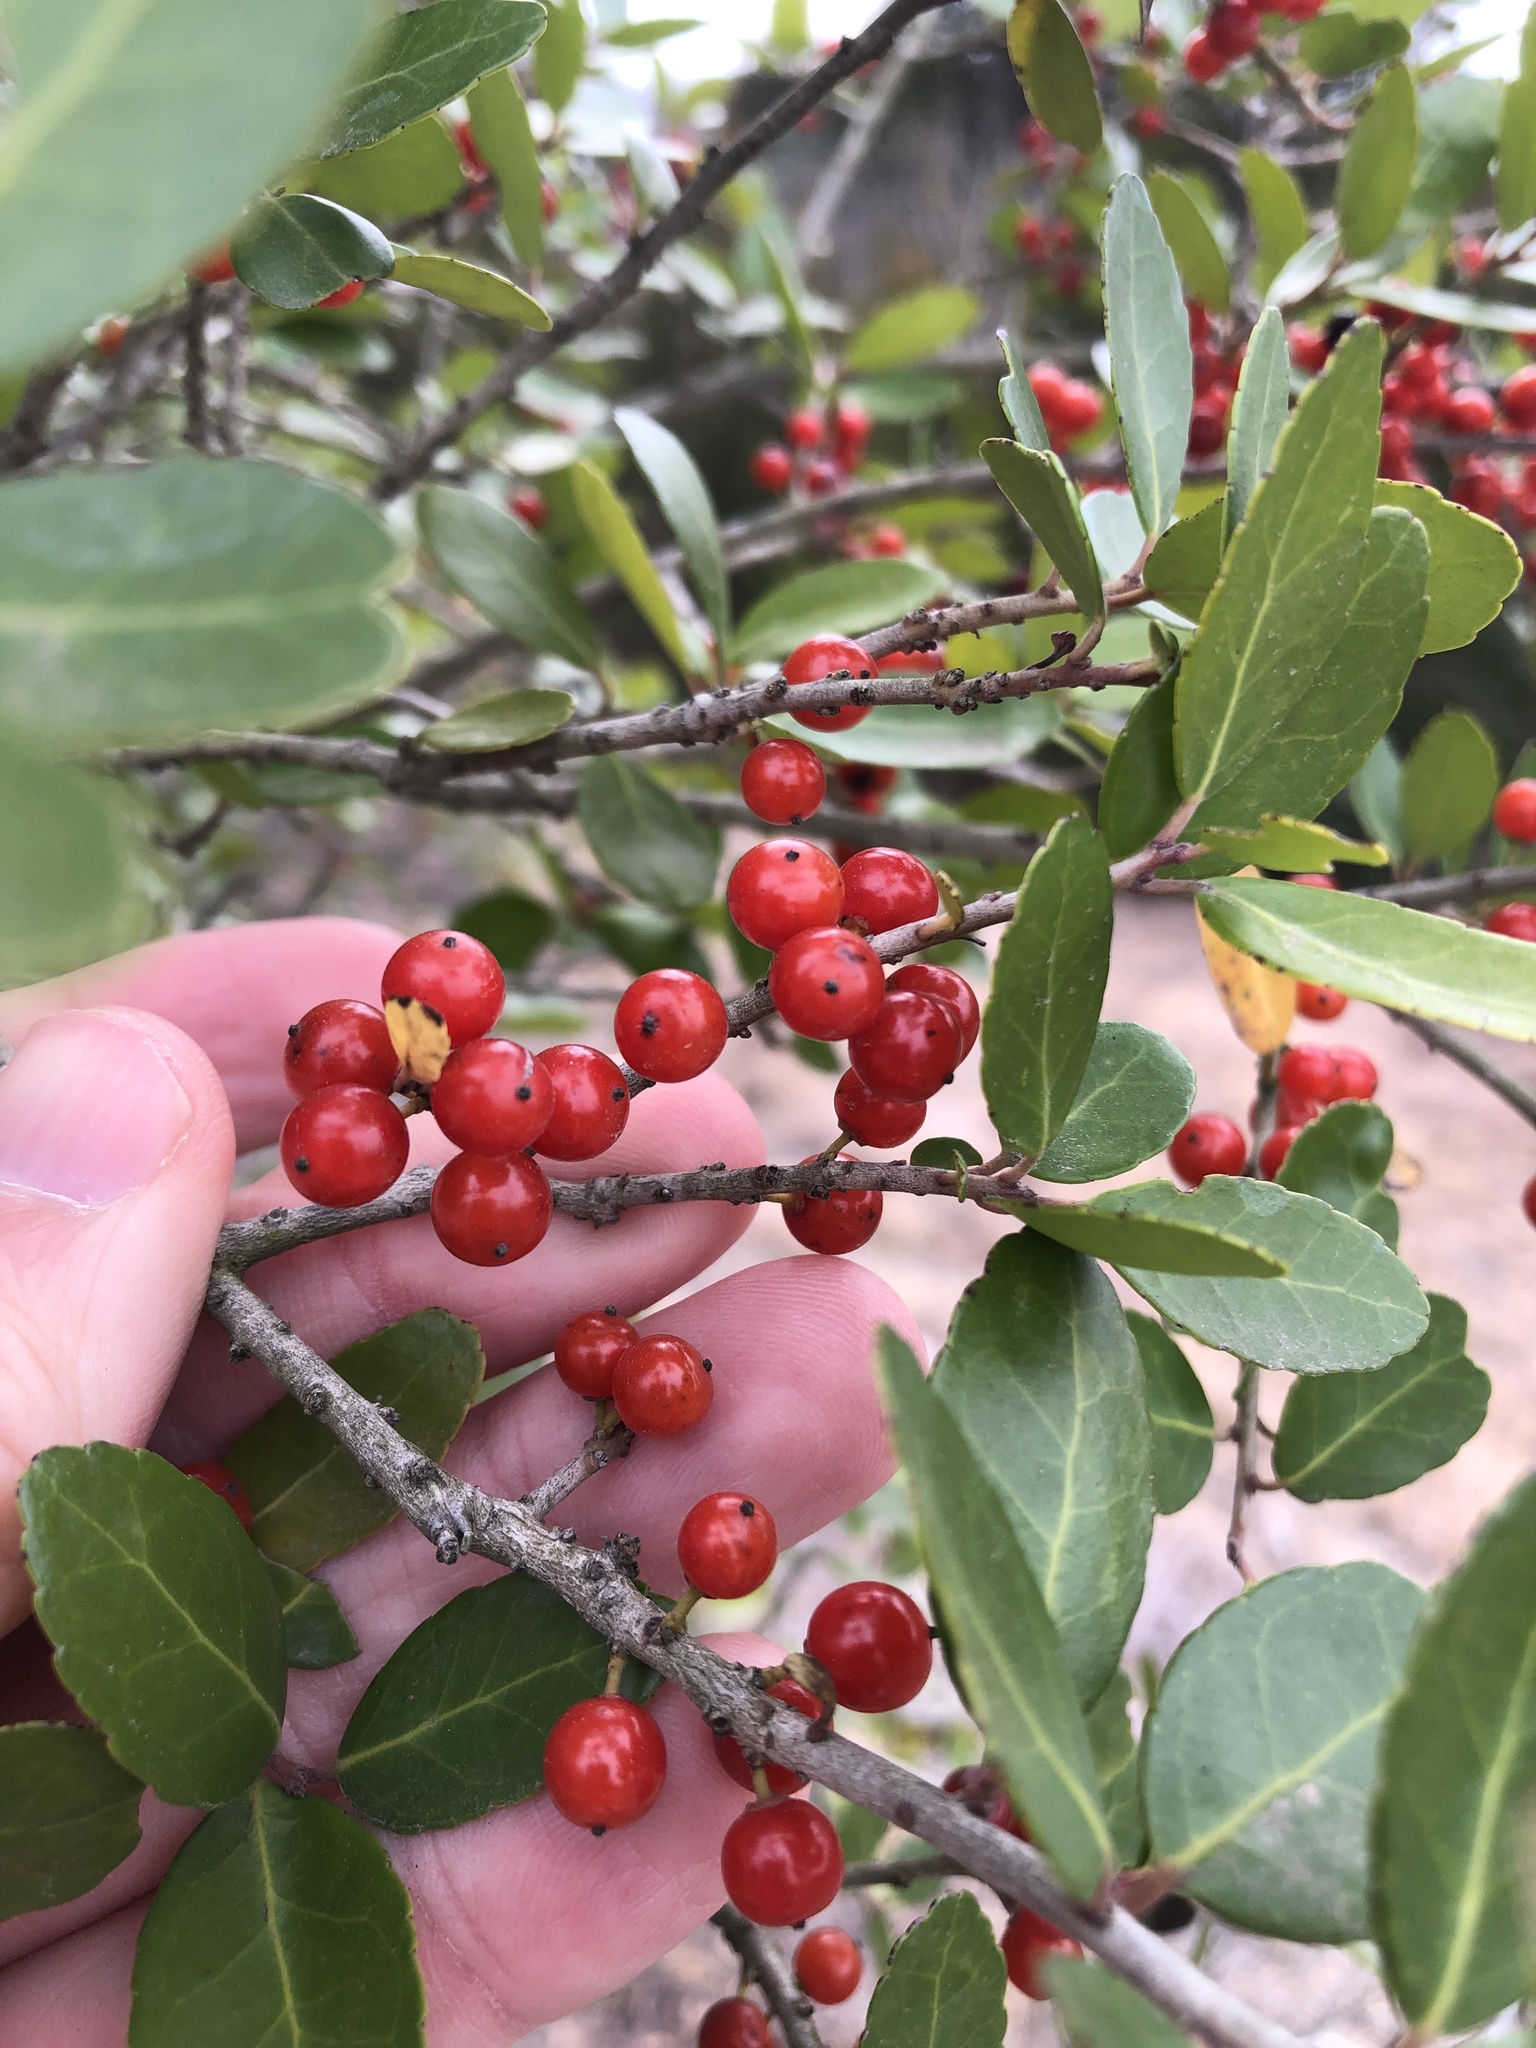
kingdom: Plantae
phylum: Tracheophyta
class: Magnoliopsida
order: Aquifoliales
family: Aquifoliaceae
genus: Ilex
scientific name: Ilex vomitoria
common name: Yaupon holly
